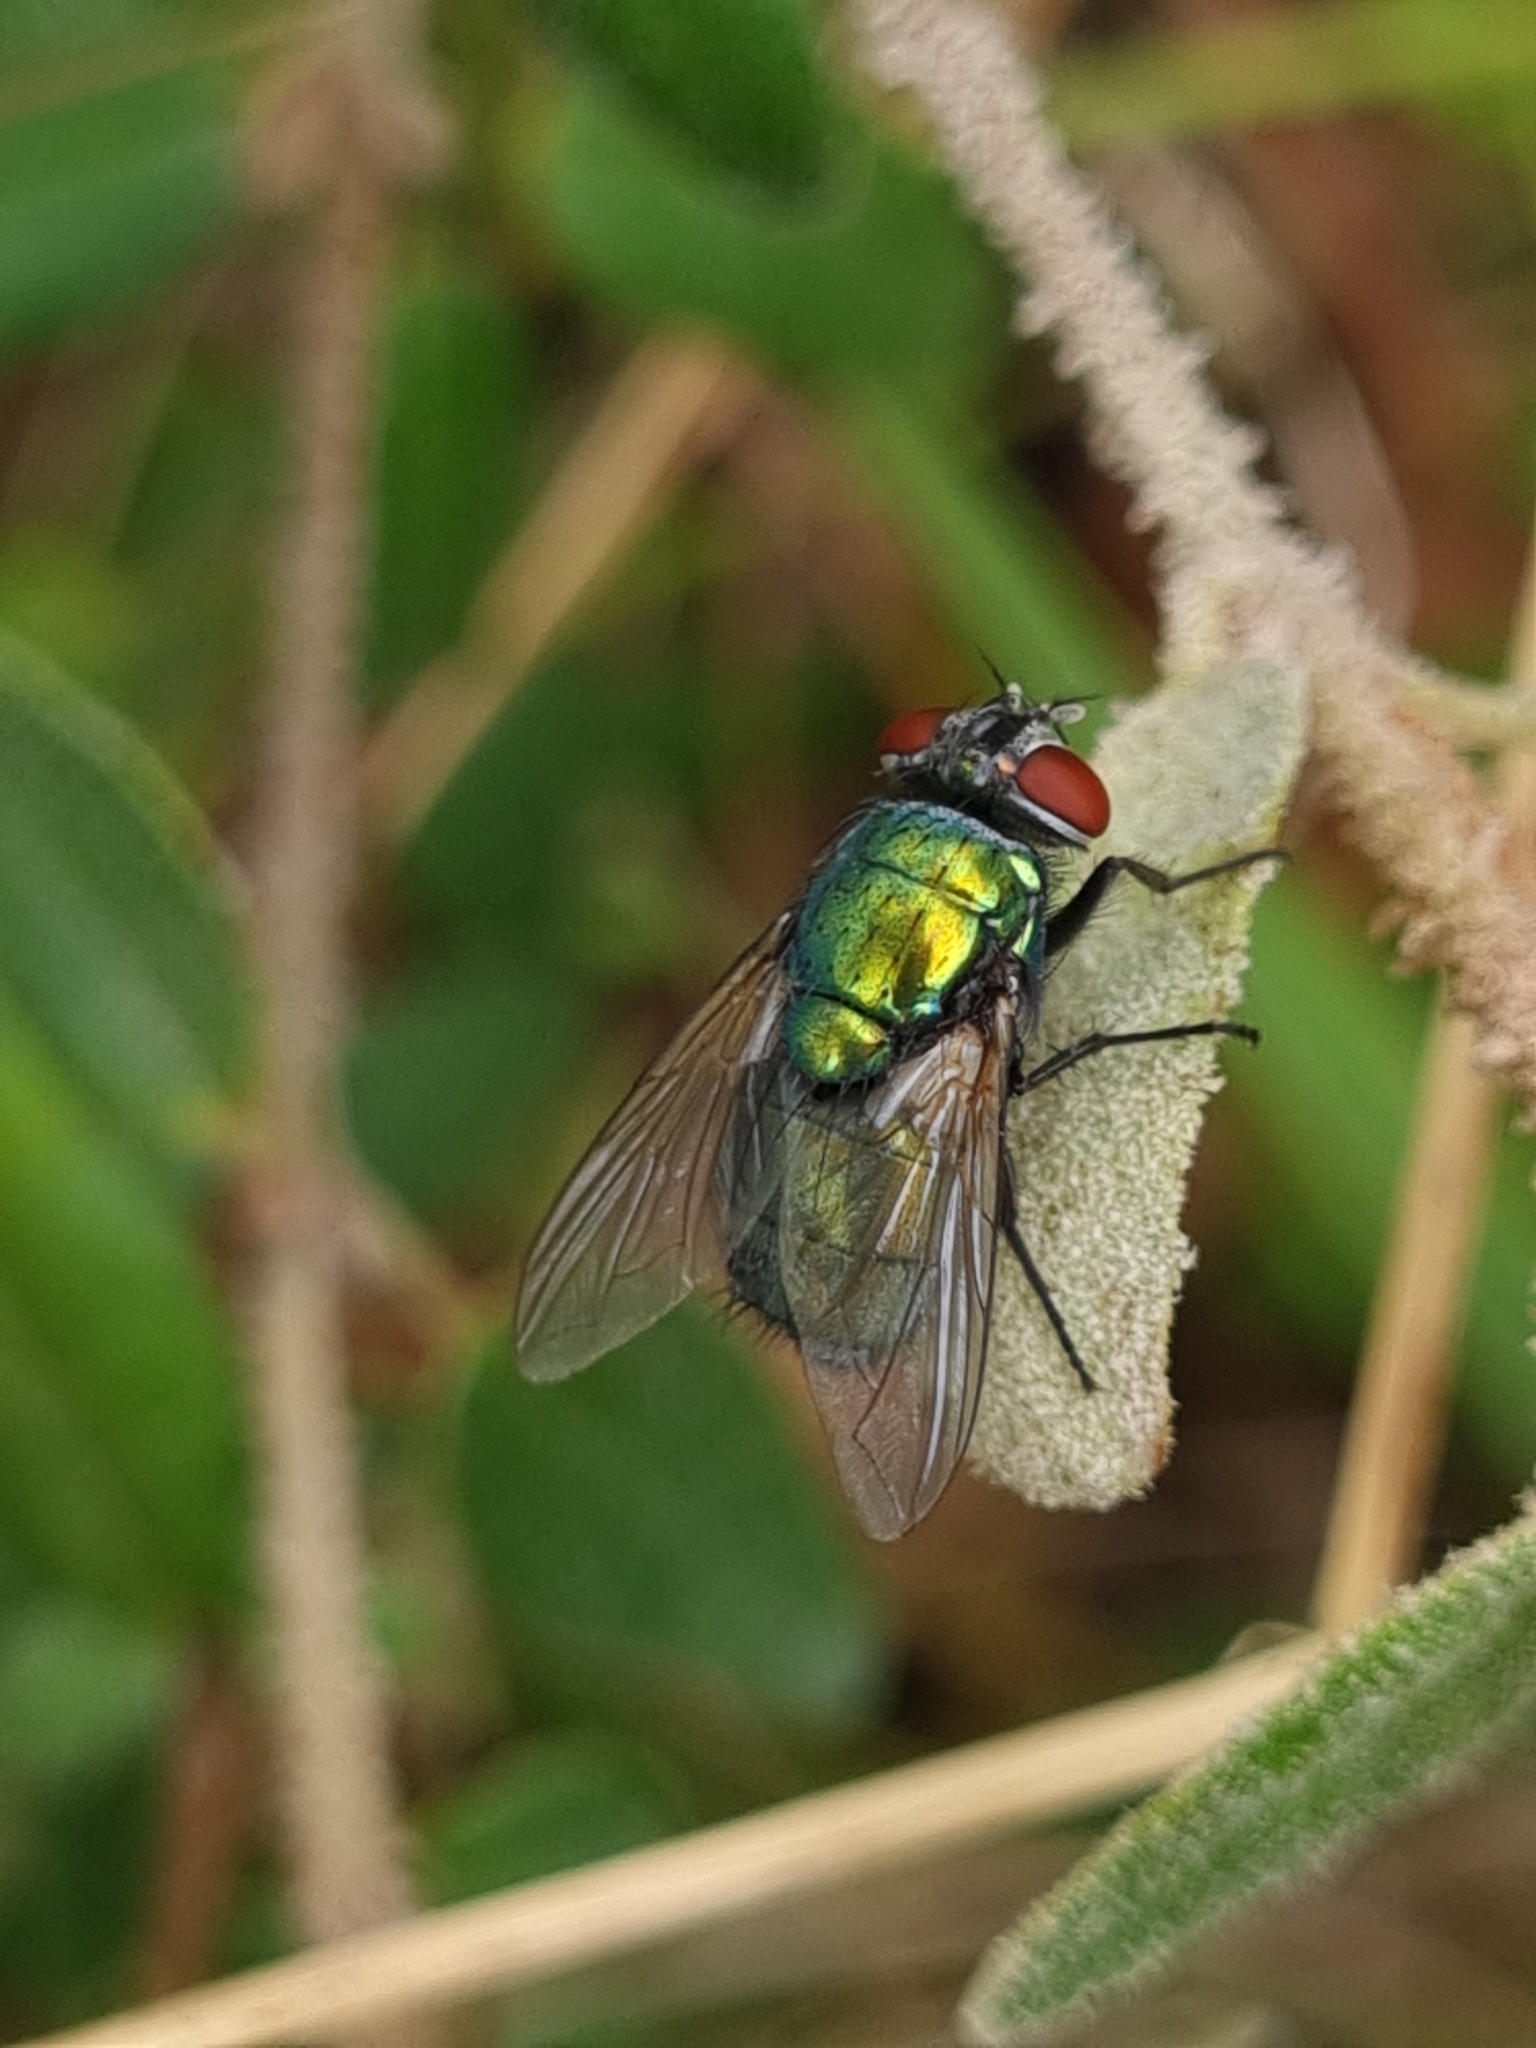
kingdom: Animalia
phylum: Arthropoda
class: Insecta
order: Diptera
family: Calliphoridae
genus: Lucilia
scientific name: Lucilia sericata
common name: Blow fly
